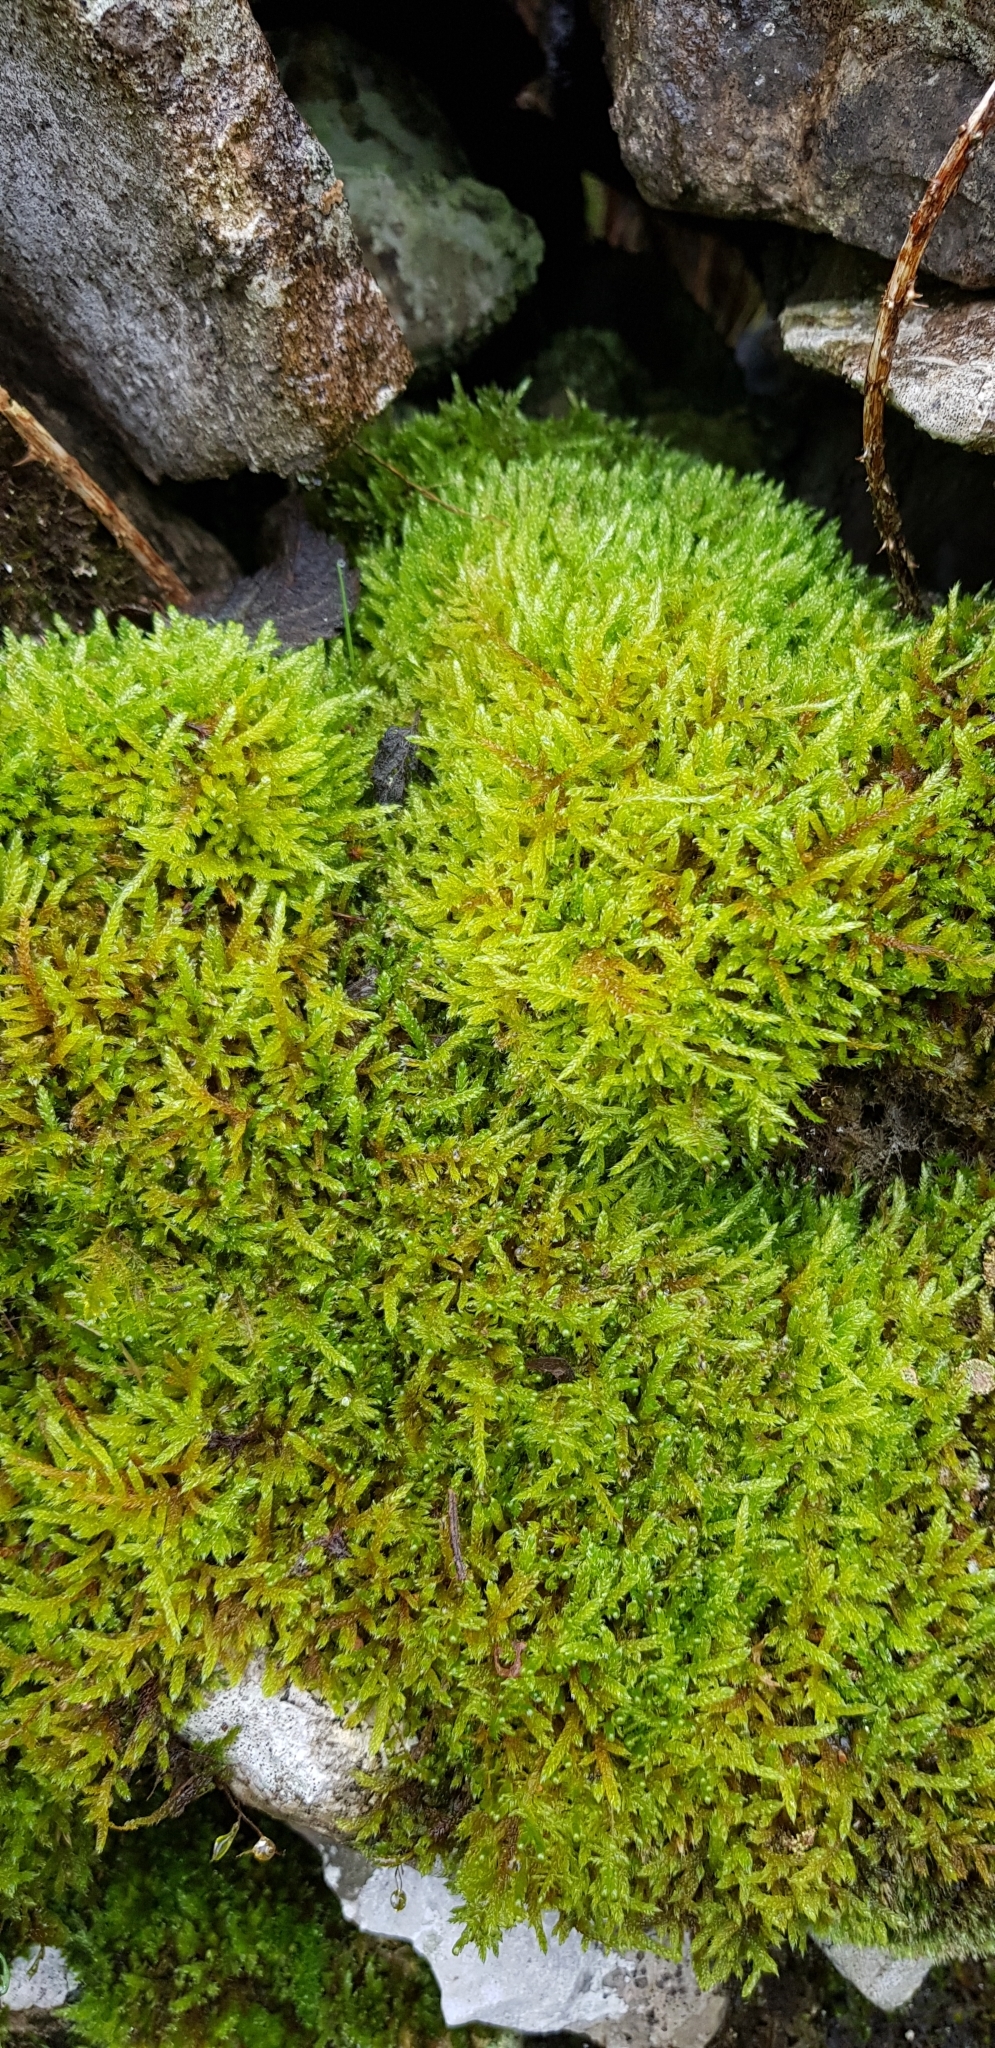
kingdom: Plantae
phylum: Bryophyta
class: Bryopsida
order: Hypnales
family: Hypnaceae
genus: Hypnum
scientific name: Hypnum cupressiforme
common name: Cypress-leaved plait-moss
